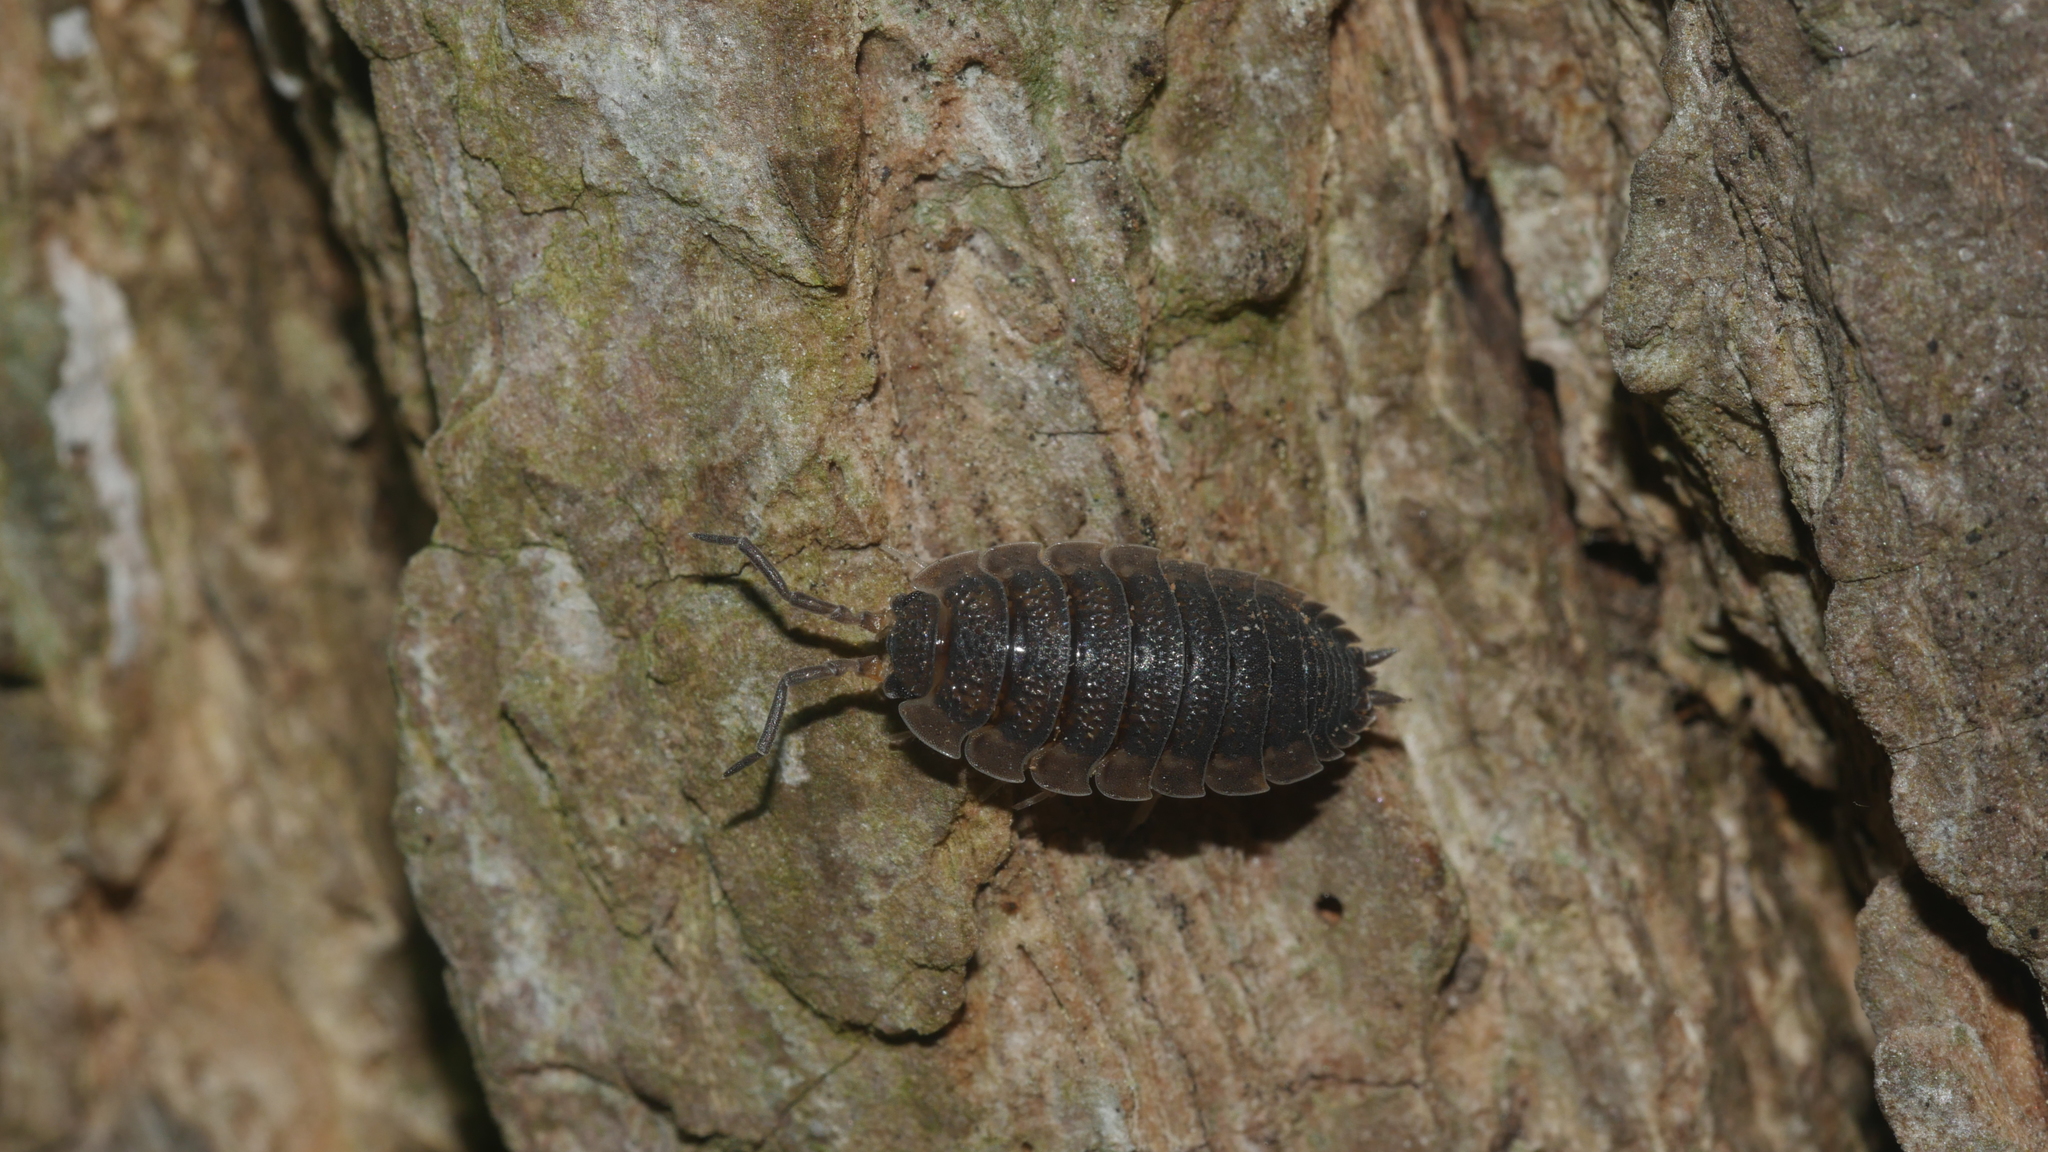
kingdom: Animalia
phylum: Arthropoda
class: Malacostraca
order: Isopoda
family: Porcellionidae
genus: Porcellio
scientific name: Porcellio scaber
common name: Common rough woodlouse
